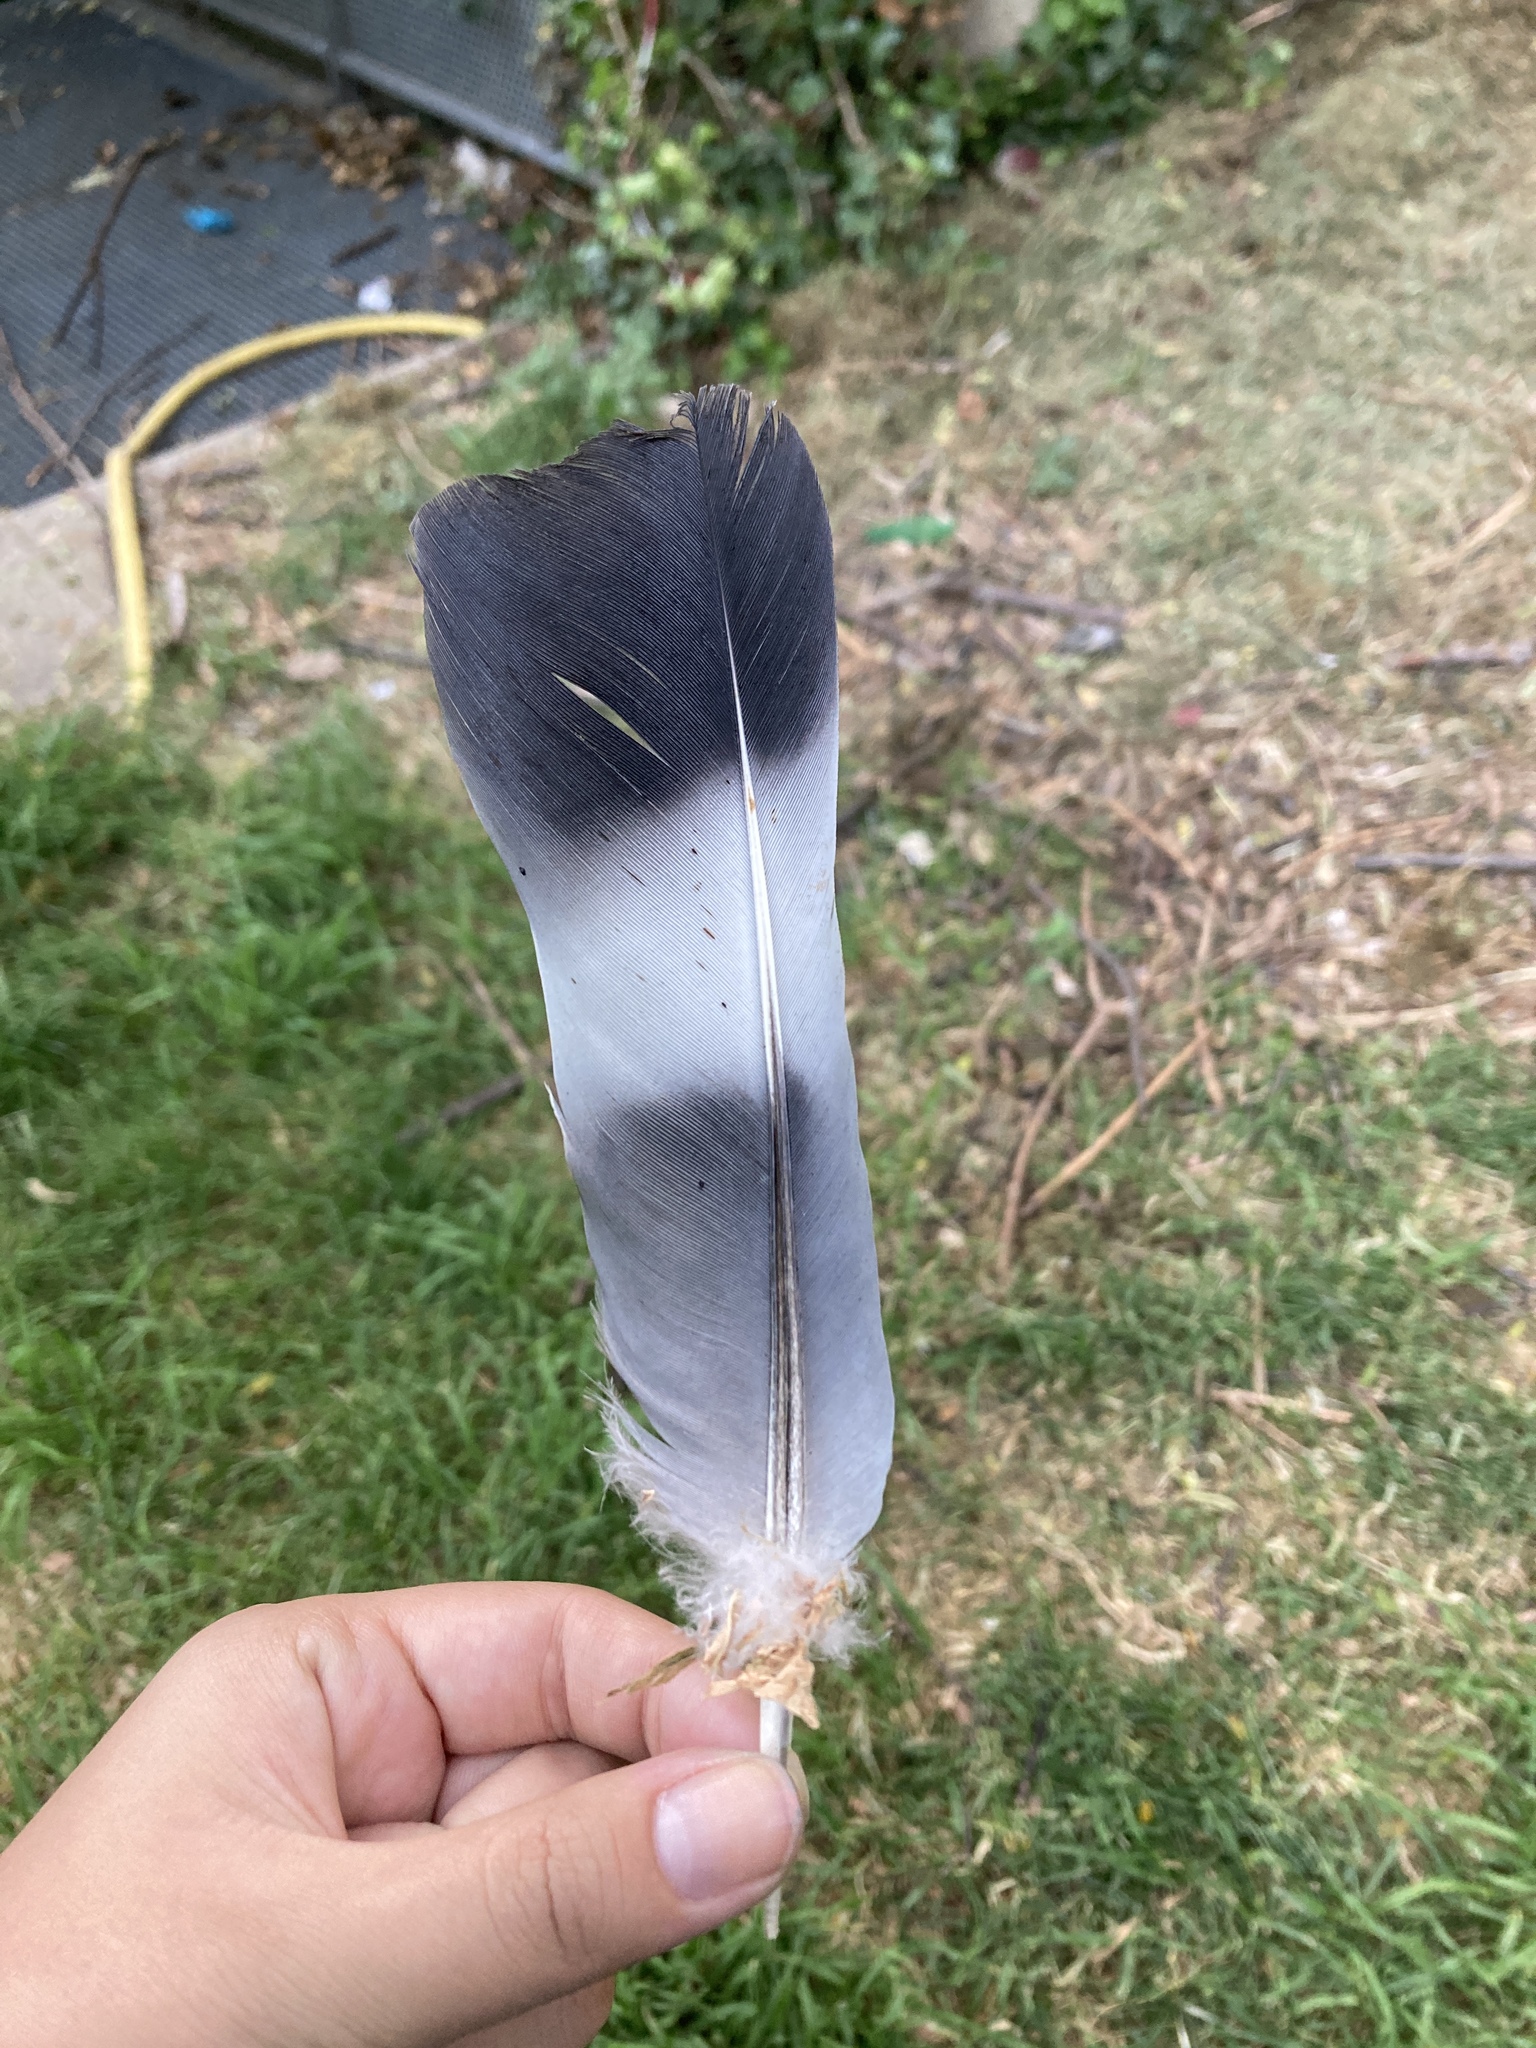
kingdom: Animalia
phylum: Chordata
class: Aves
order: Columbiformes
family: Columbidae
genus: Columba
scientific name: Columba palumbus
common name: Common wood pigeon
